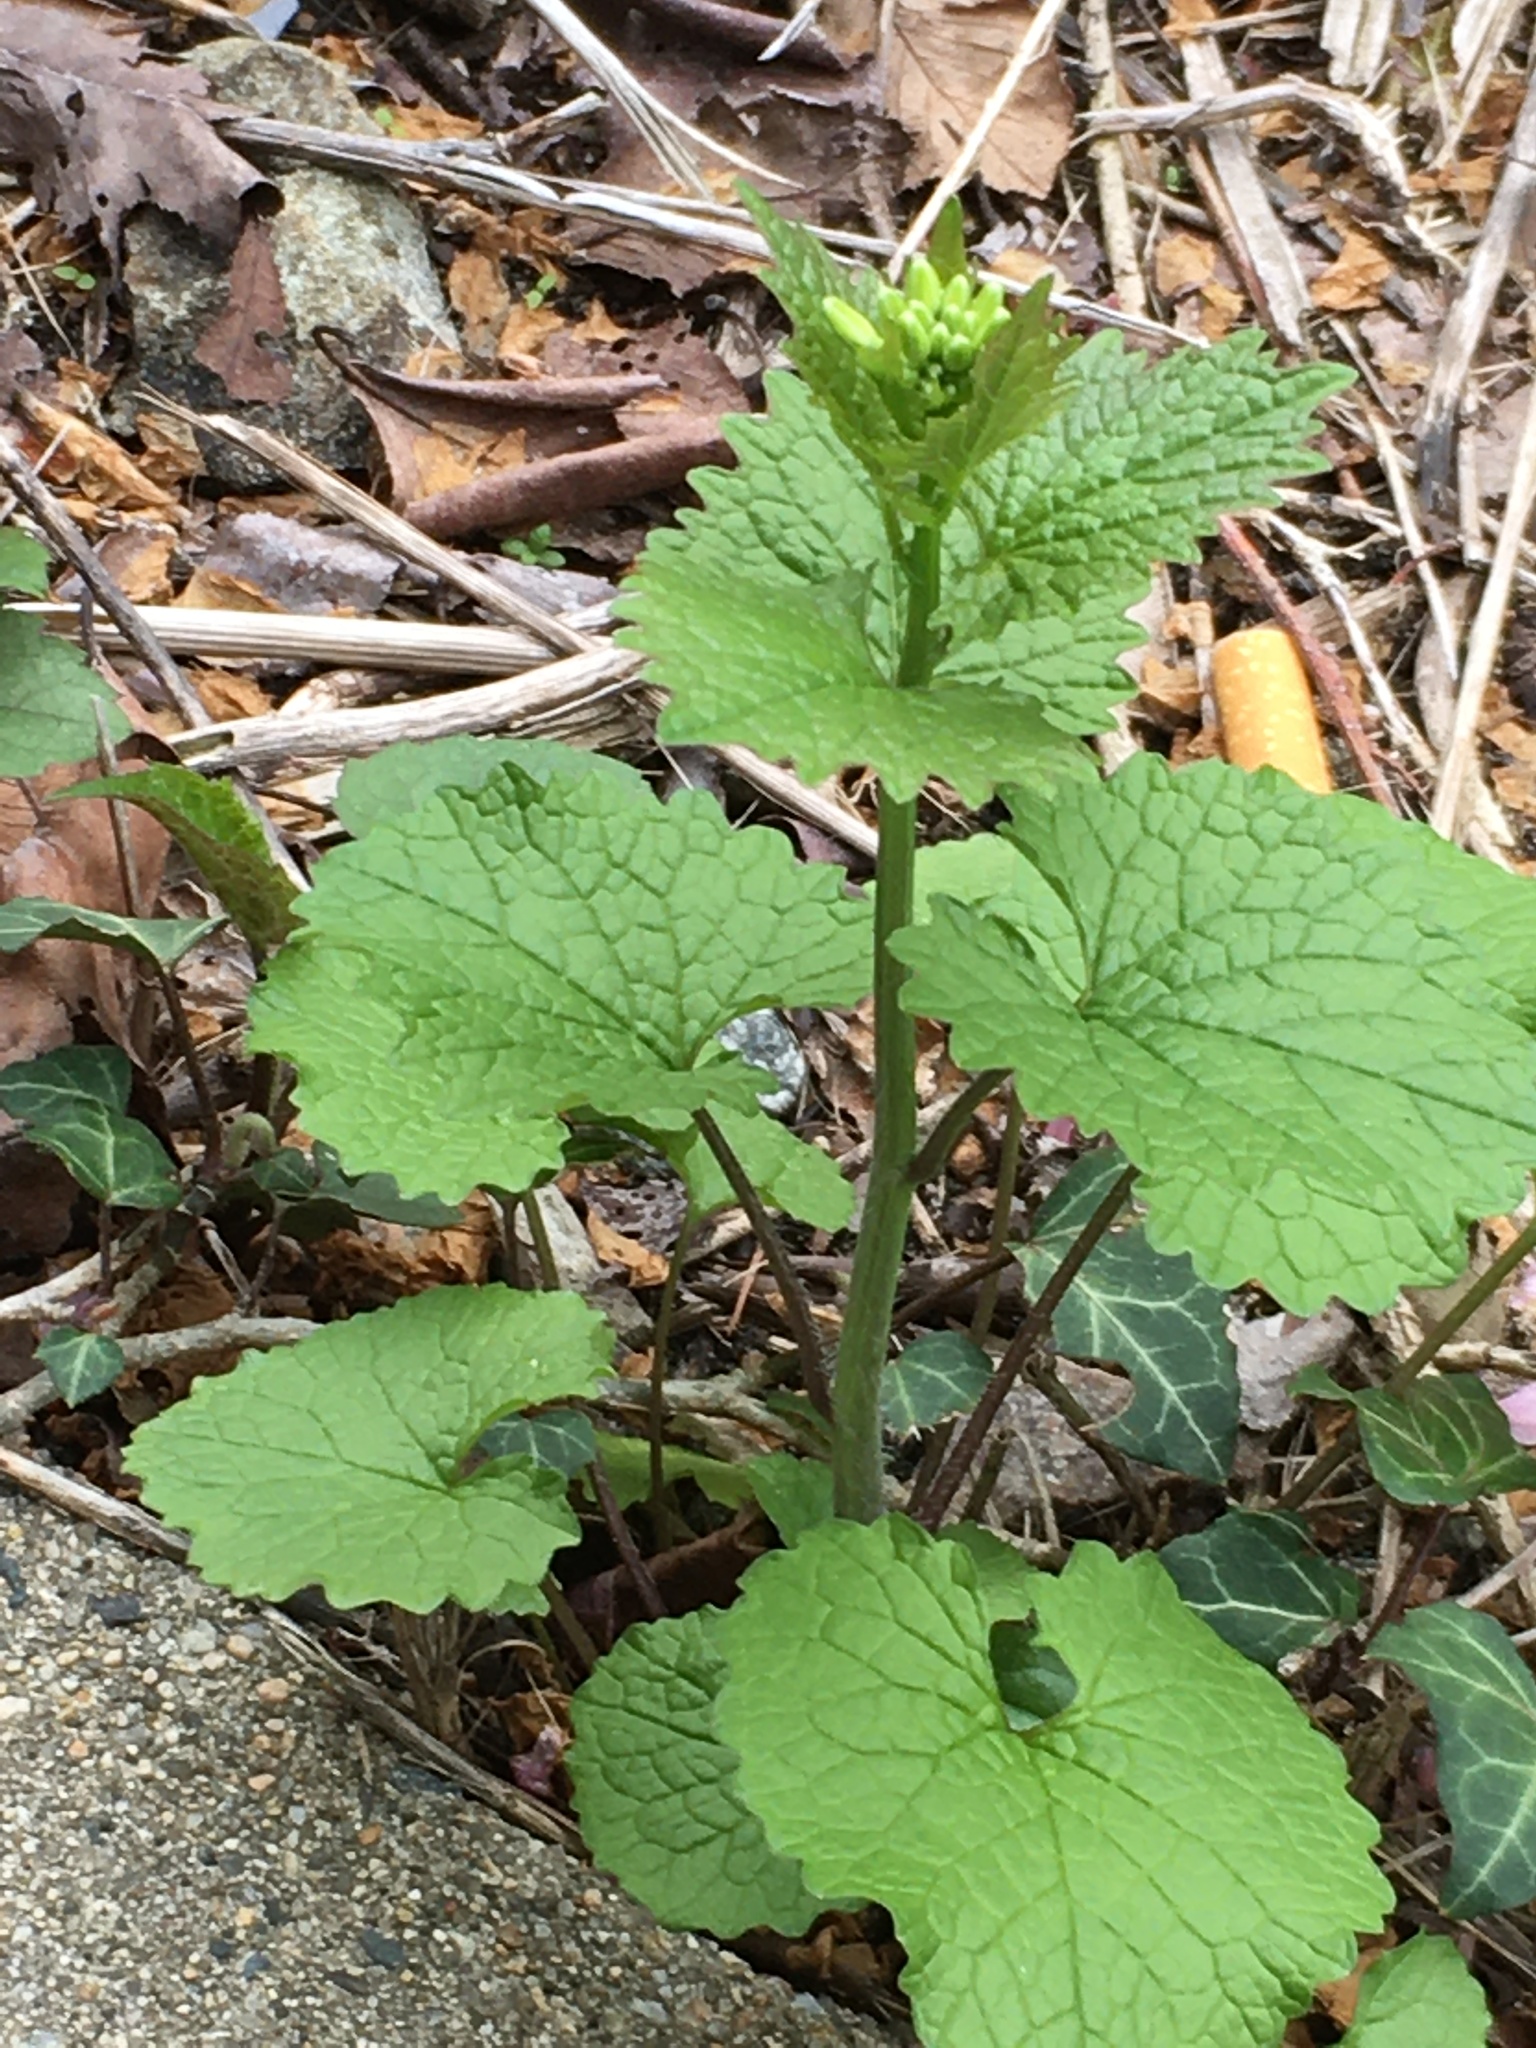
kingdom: Plantae
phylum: Tracheophyta
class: Magnoliopsida
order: Brassicales
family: Brassicaceae
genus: Alliaria
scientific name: Alliaria petiolata
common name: Garlic mustard
